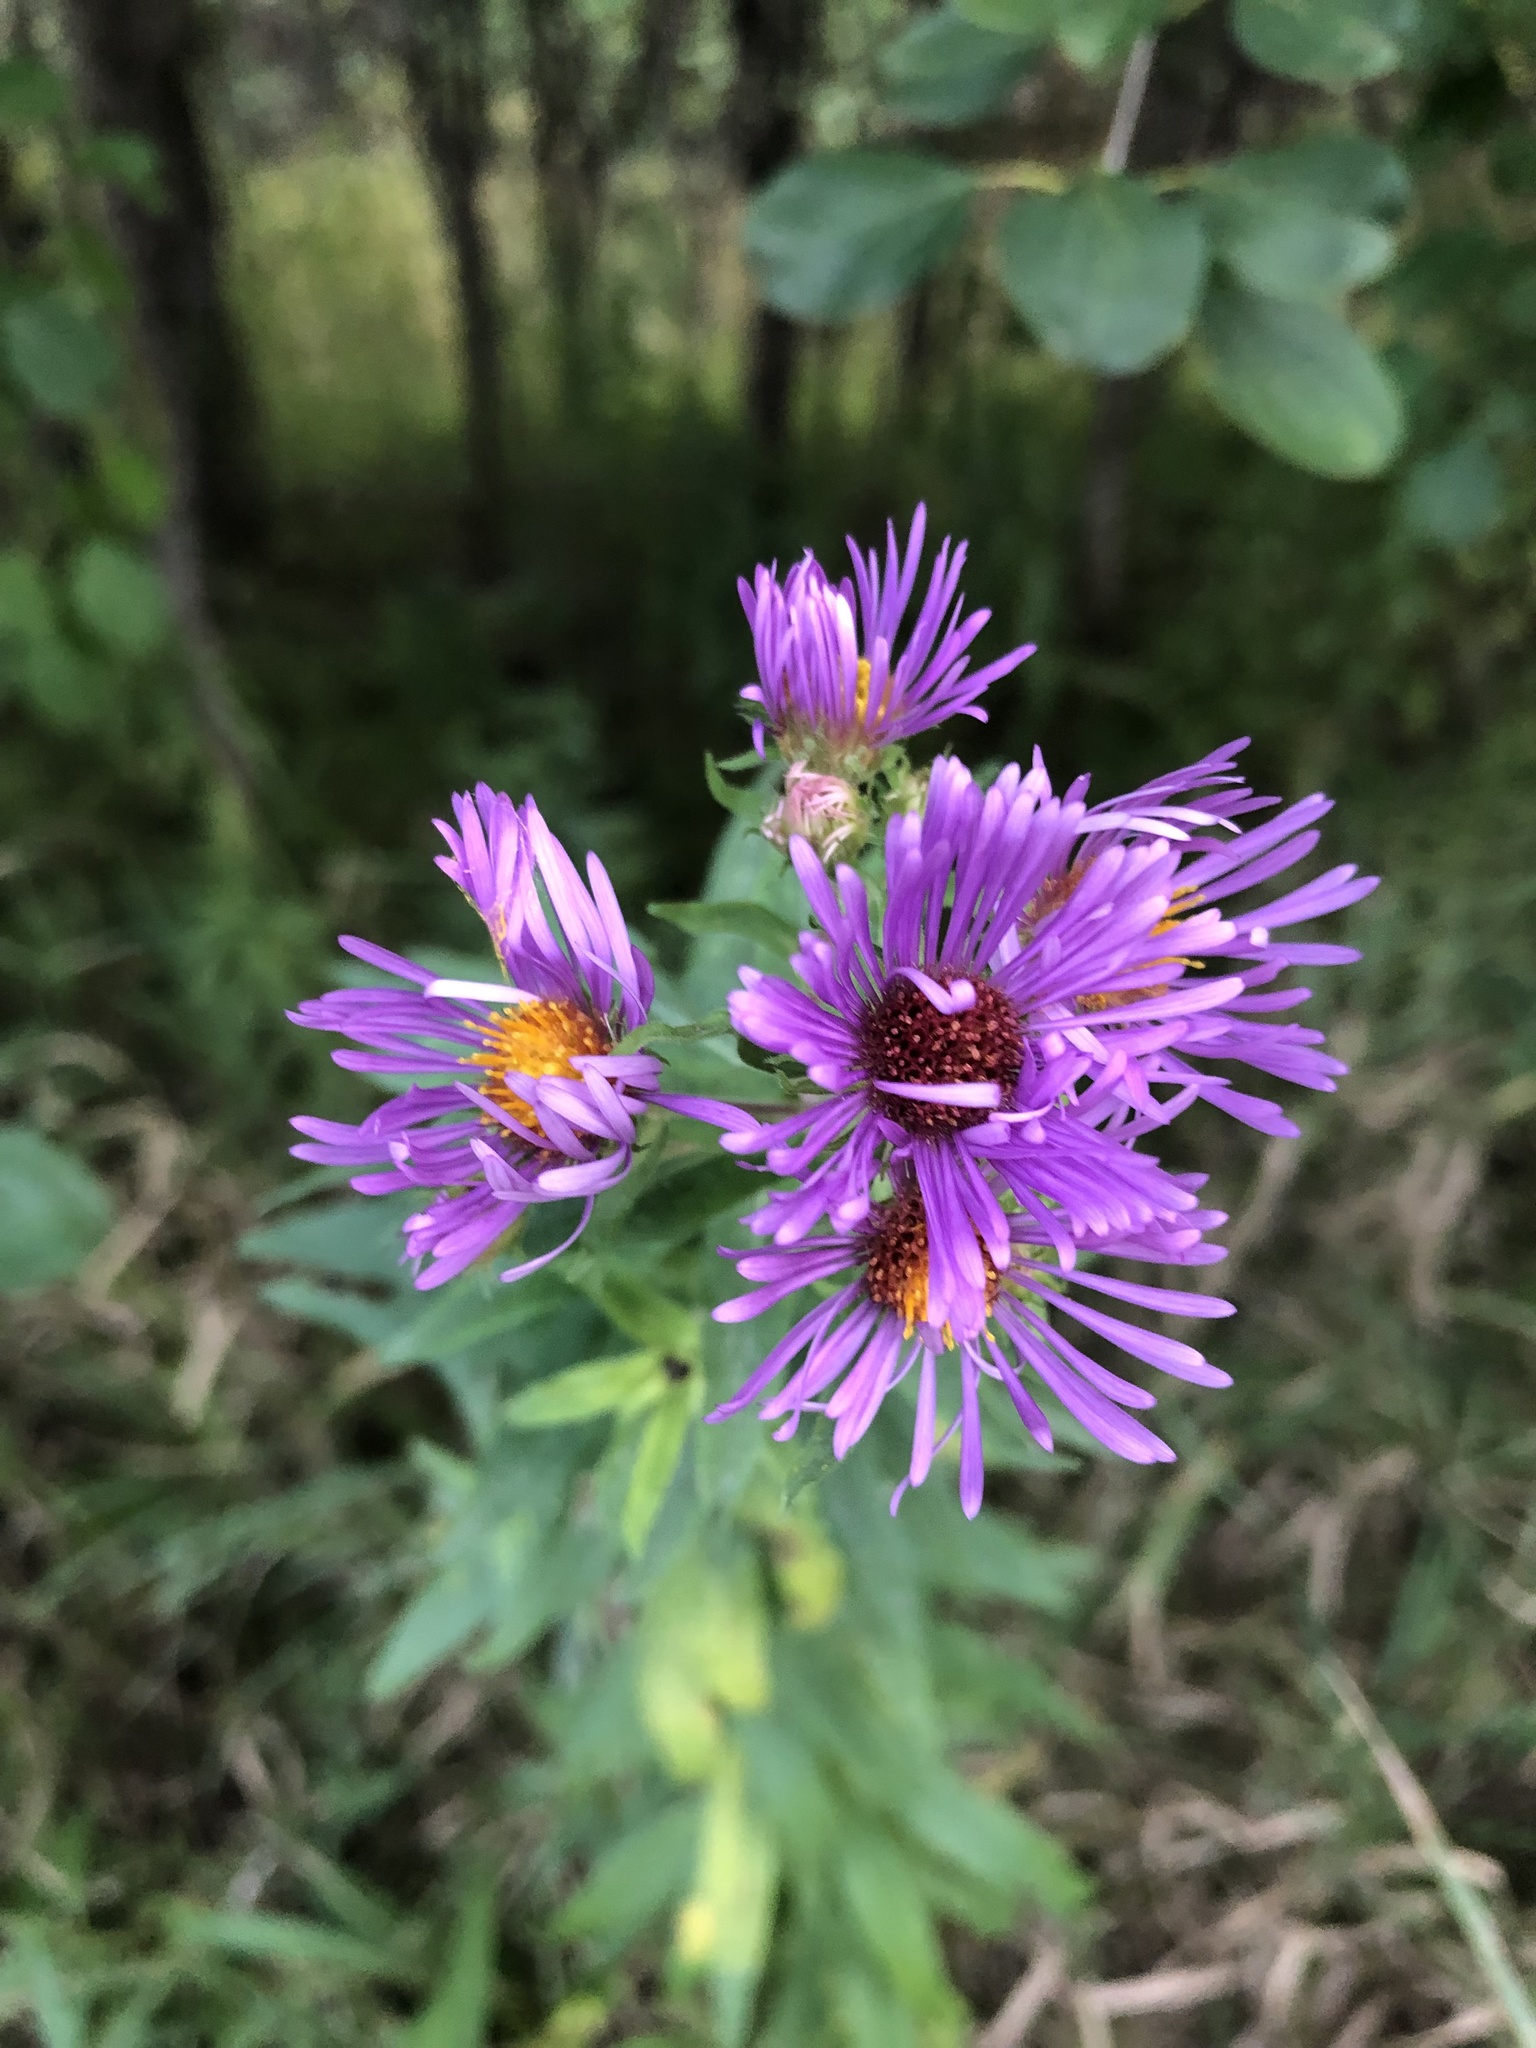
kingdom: Plantae
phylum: Tracheophyta
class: Magnoliopsida
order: Asterales
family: Asteraceae
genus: Symphyotrichum
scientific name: Symphyotrichum novae-angliae
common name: Michaelmas daisy
